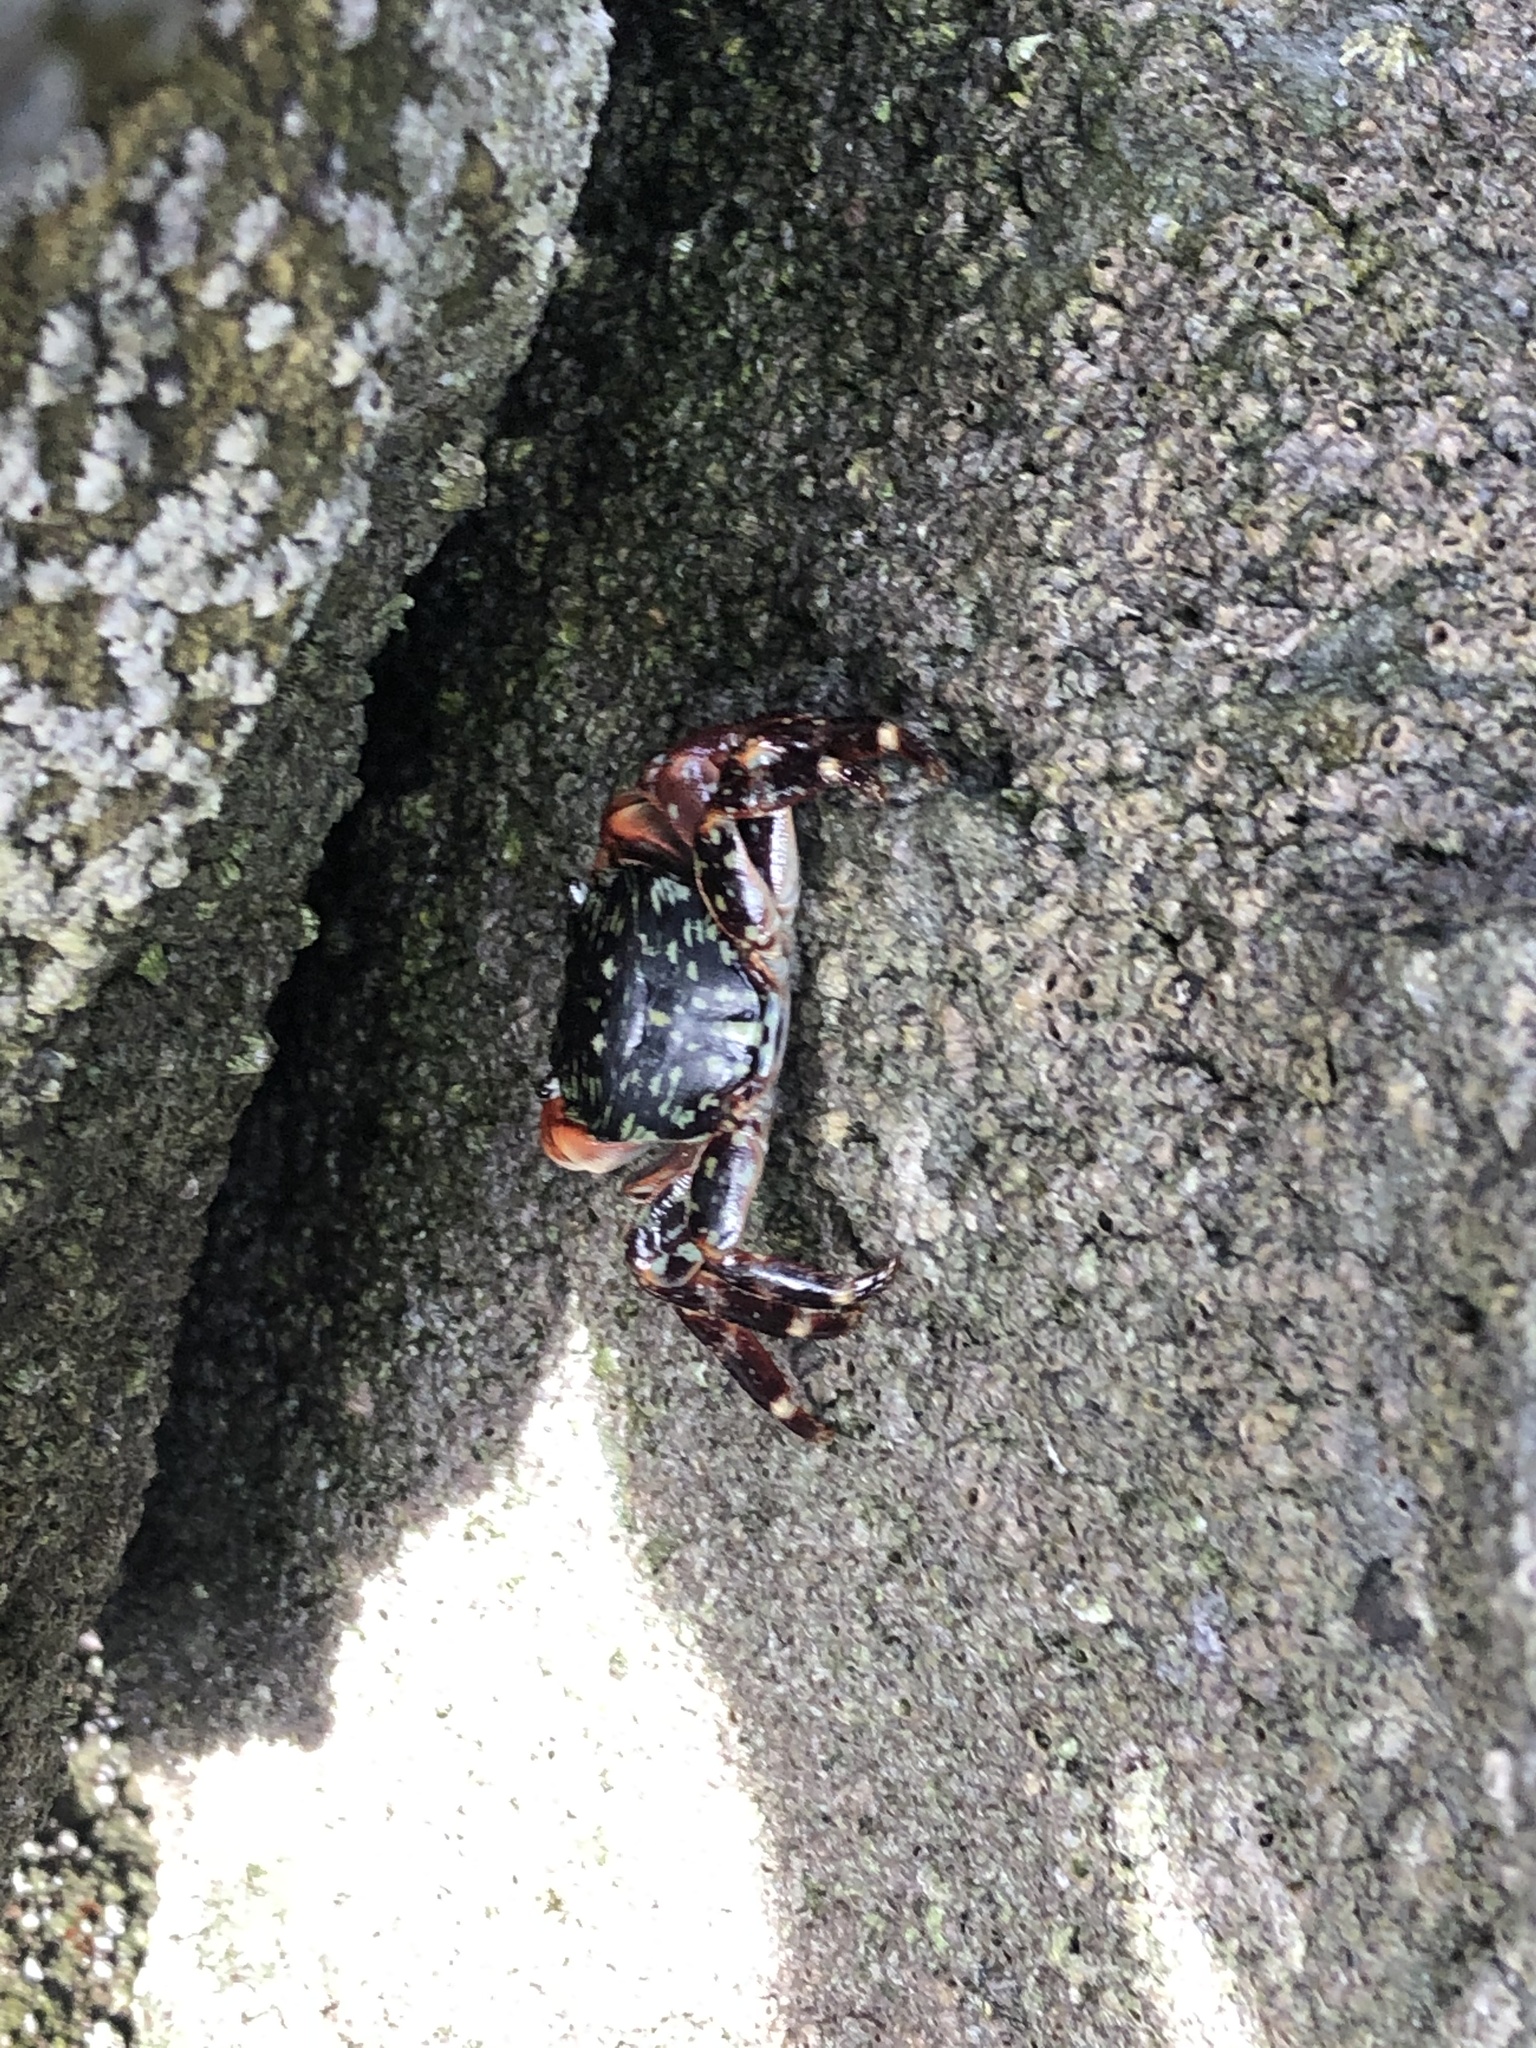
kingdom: Animalia
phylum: Arthropoda
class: Malacostraca
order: Decapoda
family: Grapsidae
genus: Pachygrapsus
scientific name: Pachygrapsus crassipes
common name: Striped shore crab
